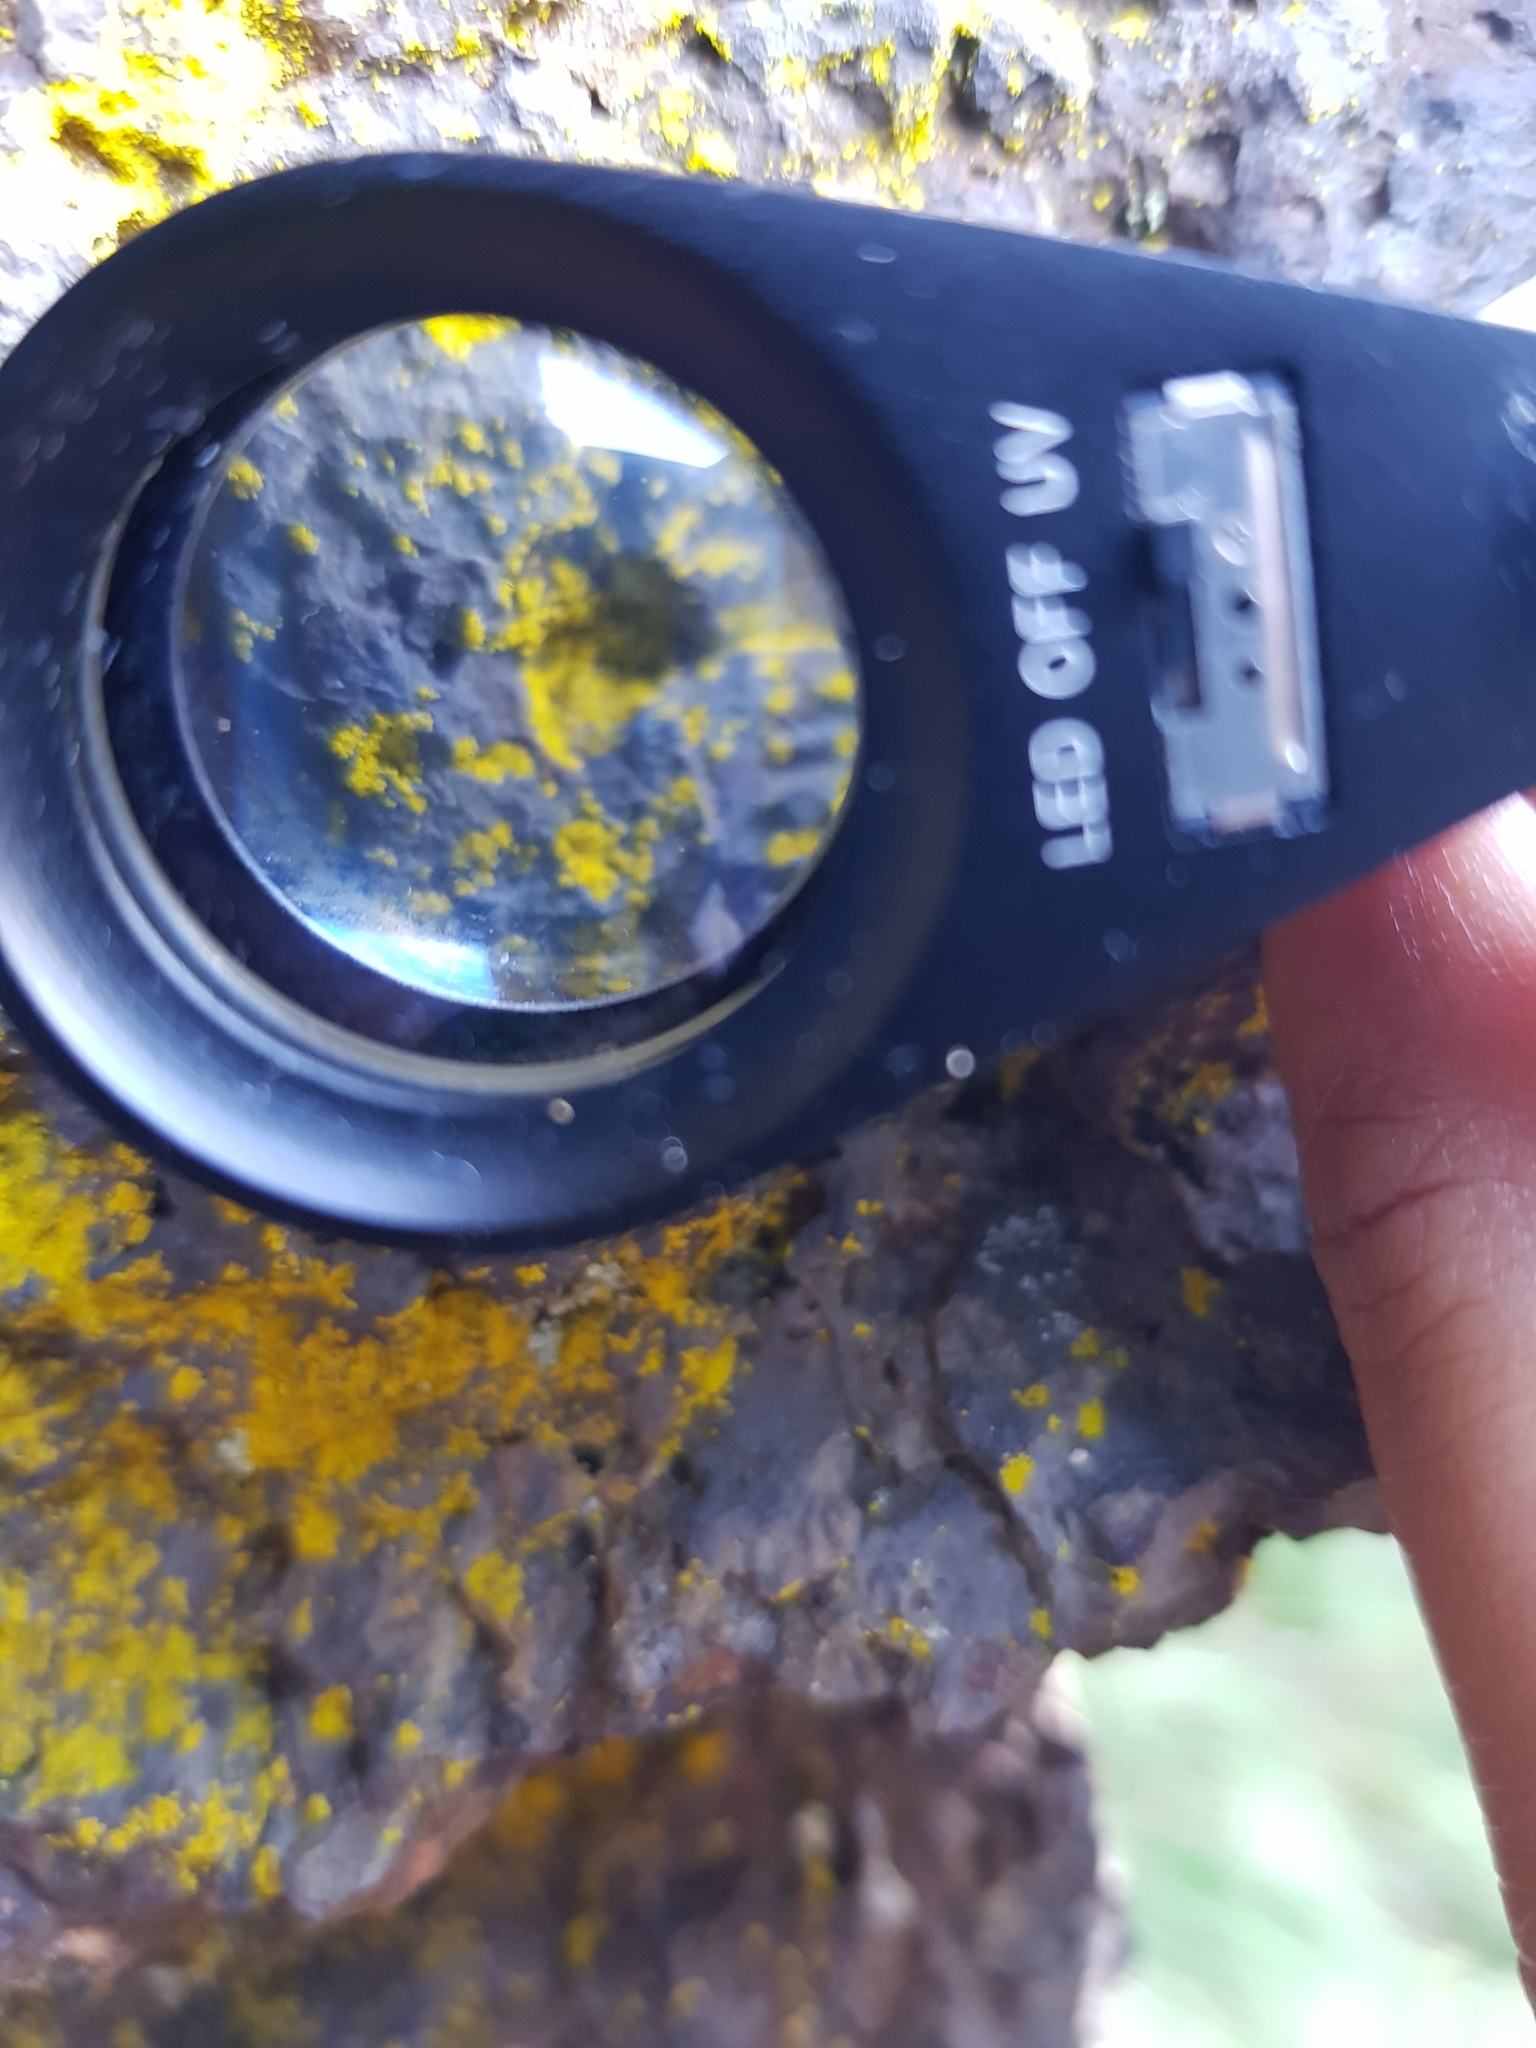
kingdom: Fungi
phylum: Ascomycota
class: Arthoniomycetes
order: Arthoniales
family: Chrysotrichaceae
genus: Chrysothrix
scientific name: Chrysothrix candelaris
